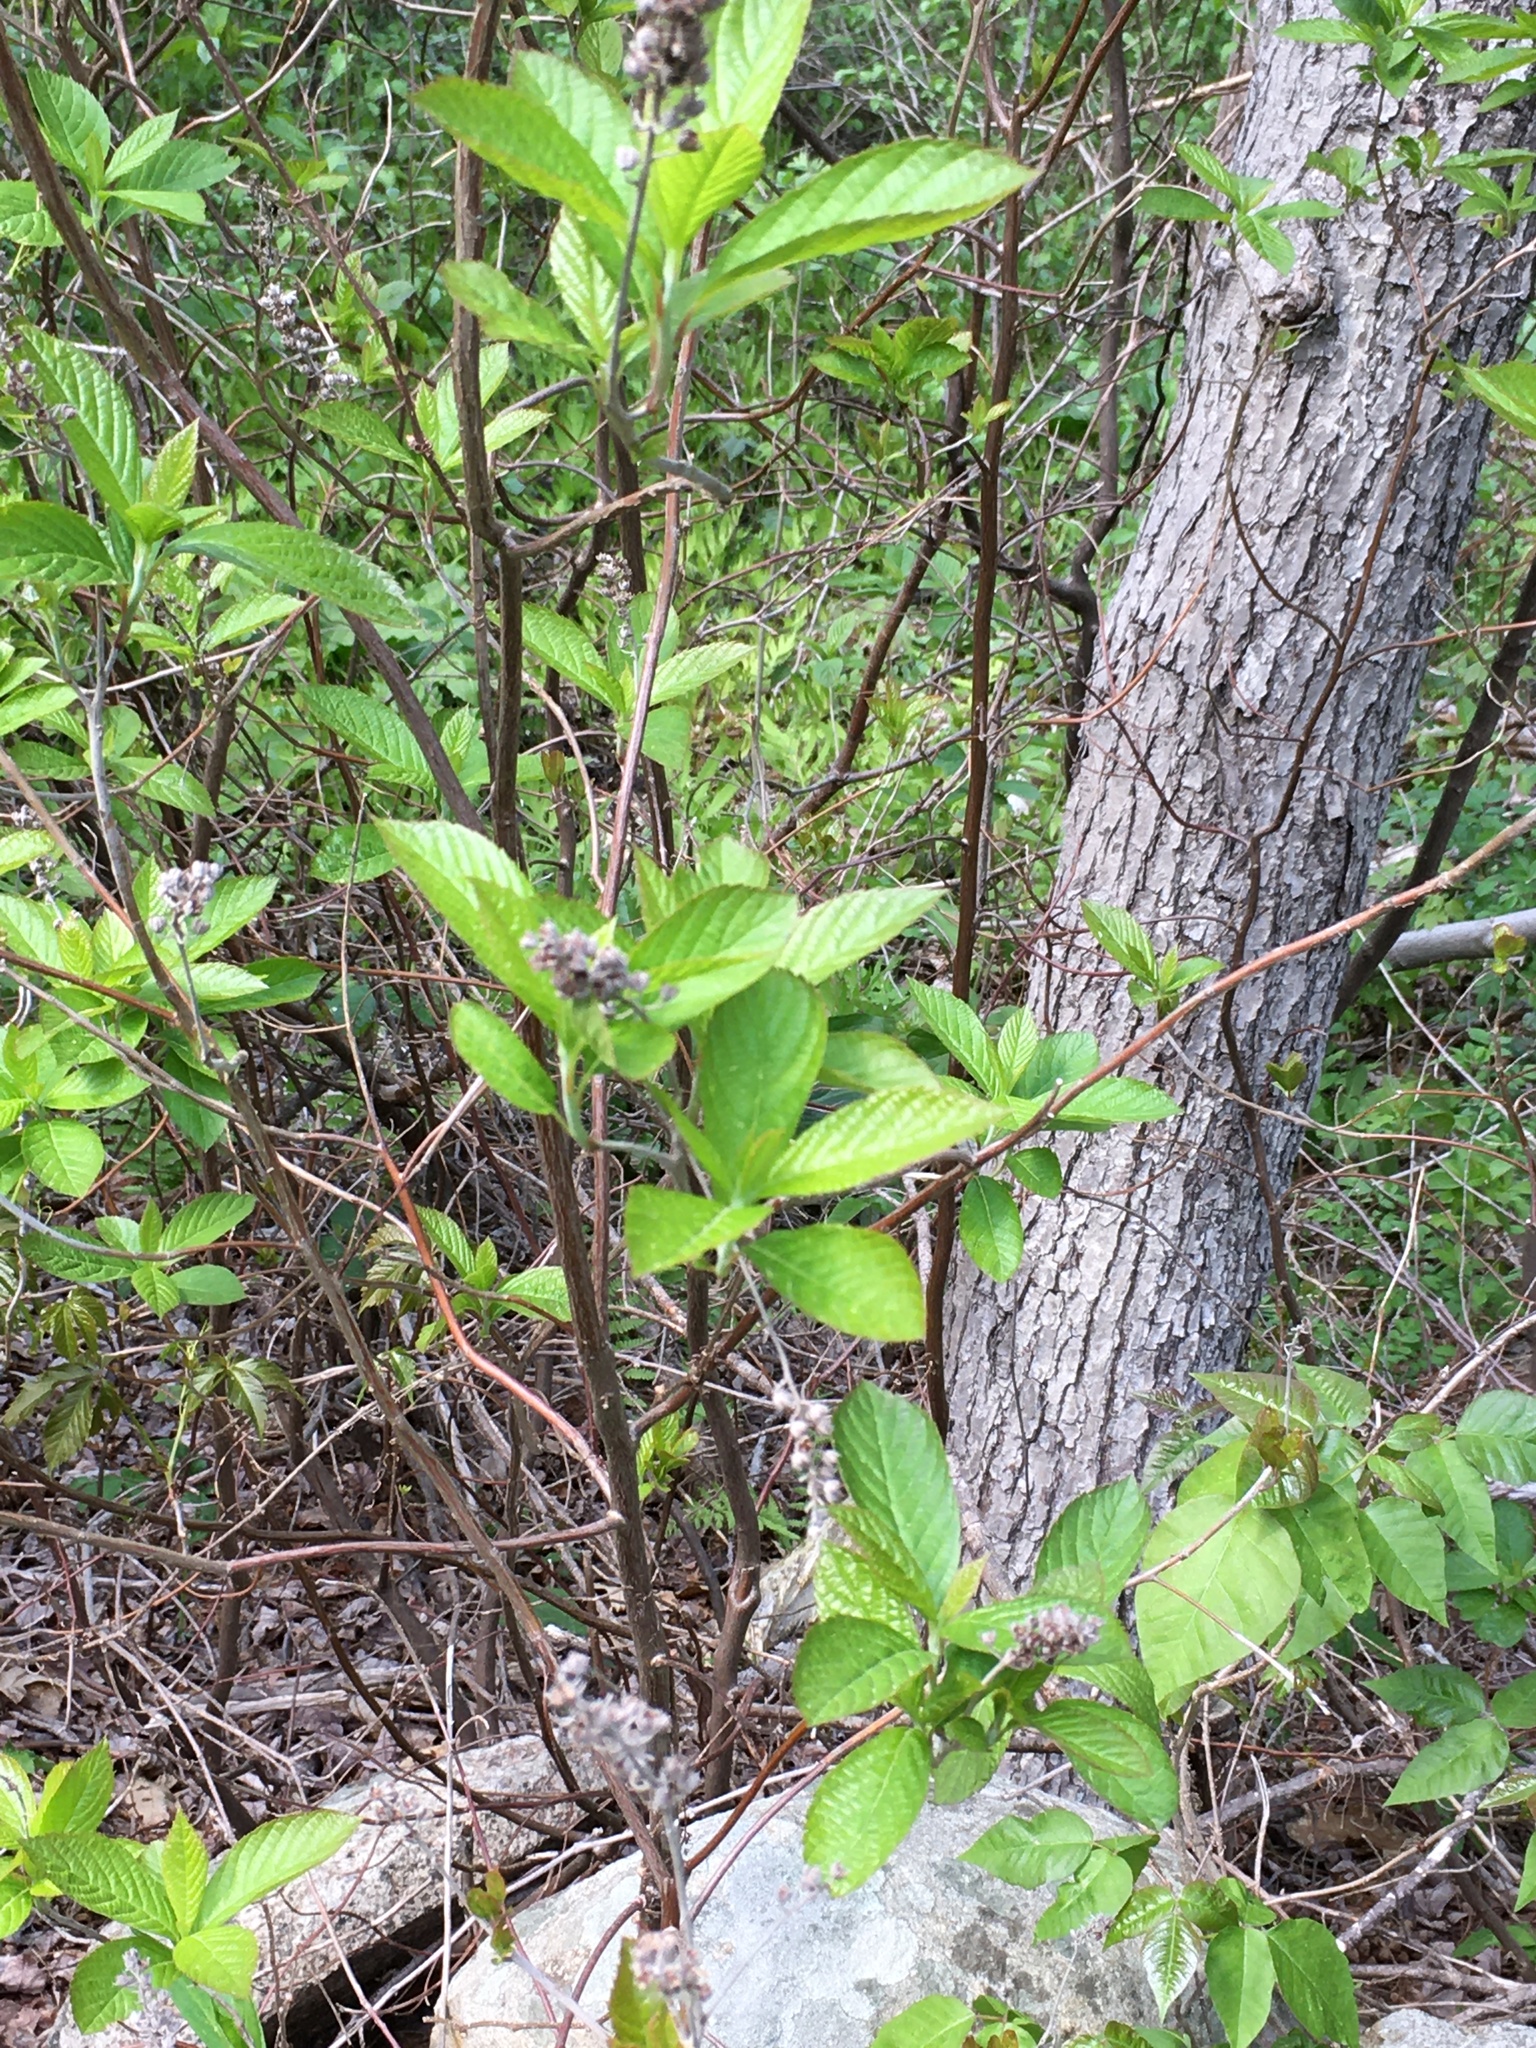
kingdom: Plantae
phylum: Tracheophyta
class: Magnoliopsida
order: Ericales
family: Clethraceae
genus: Clethra
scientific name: Clethra alnifolia
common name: Sweet pepperbush
